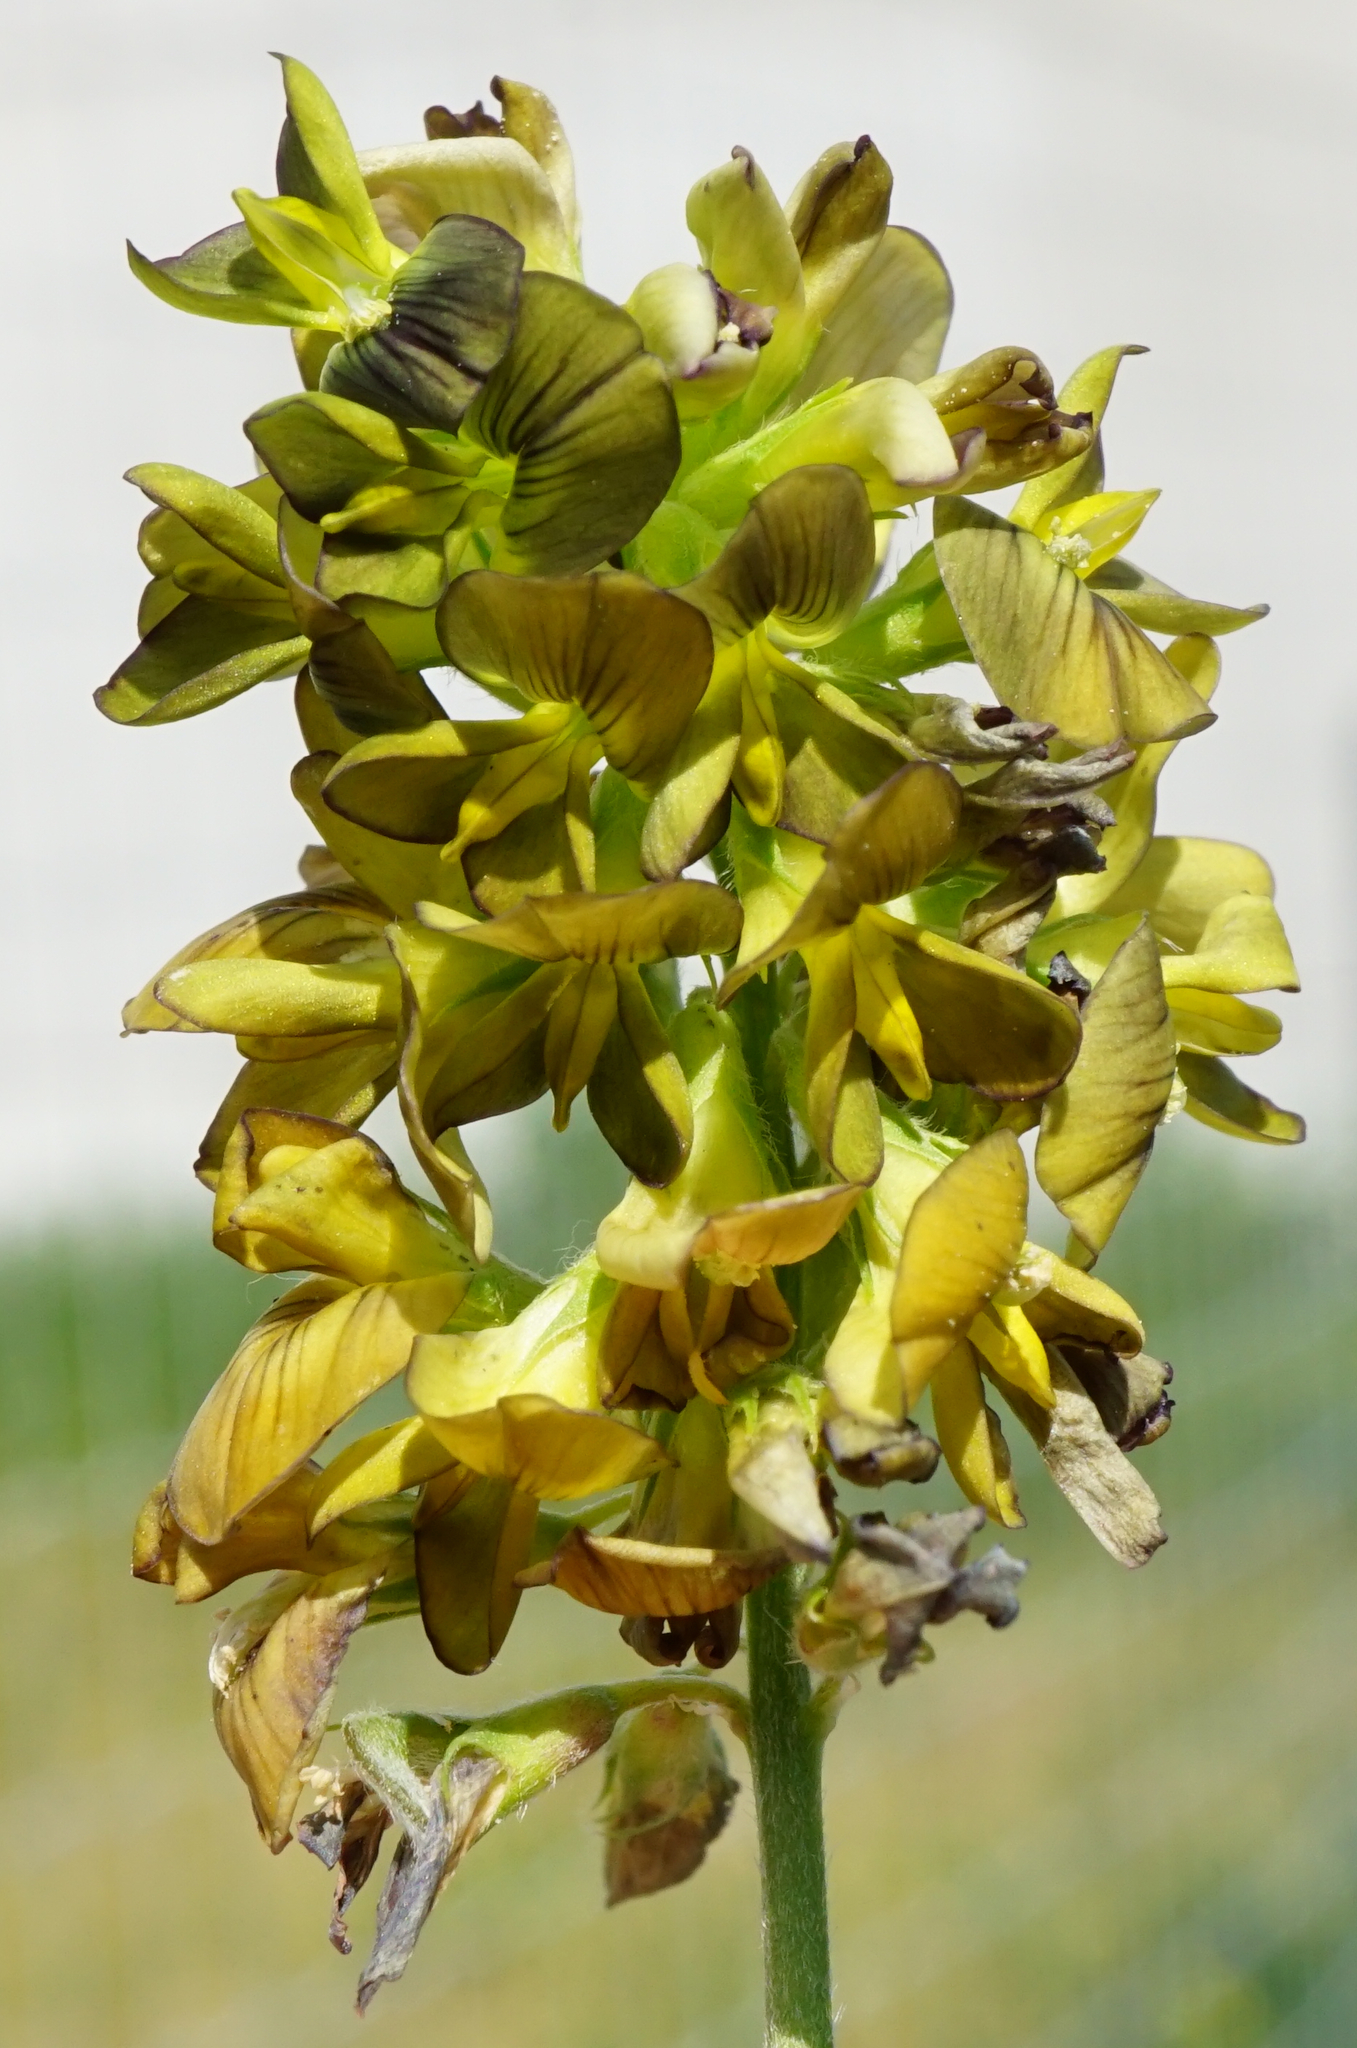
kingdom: Plantae
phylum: Tracheophyta
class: Magnoliopsida
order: Fabales
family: Fabaceae
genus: Medicago
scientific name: Medicago varia
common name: Sand lucerne
